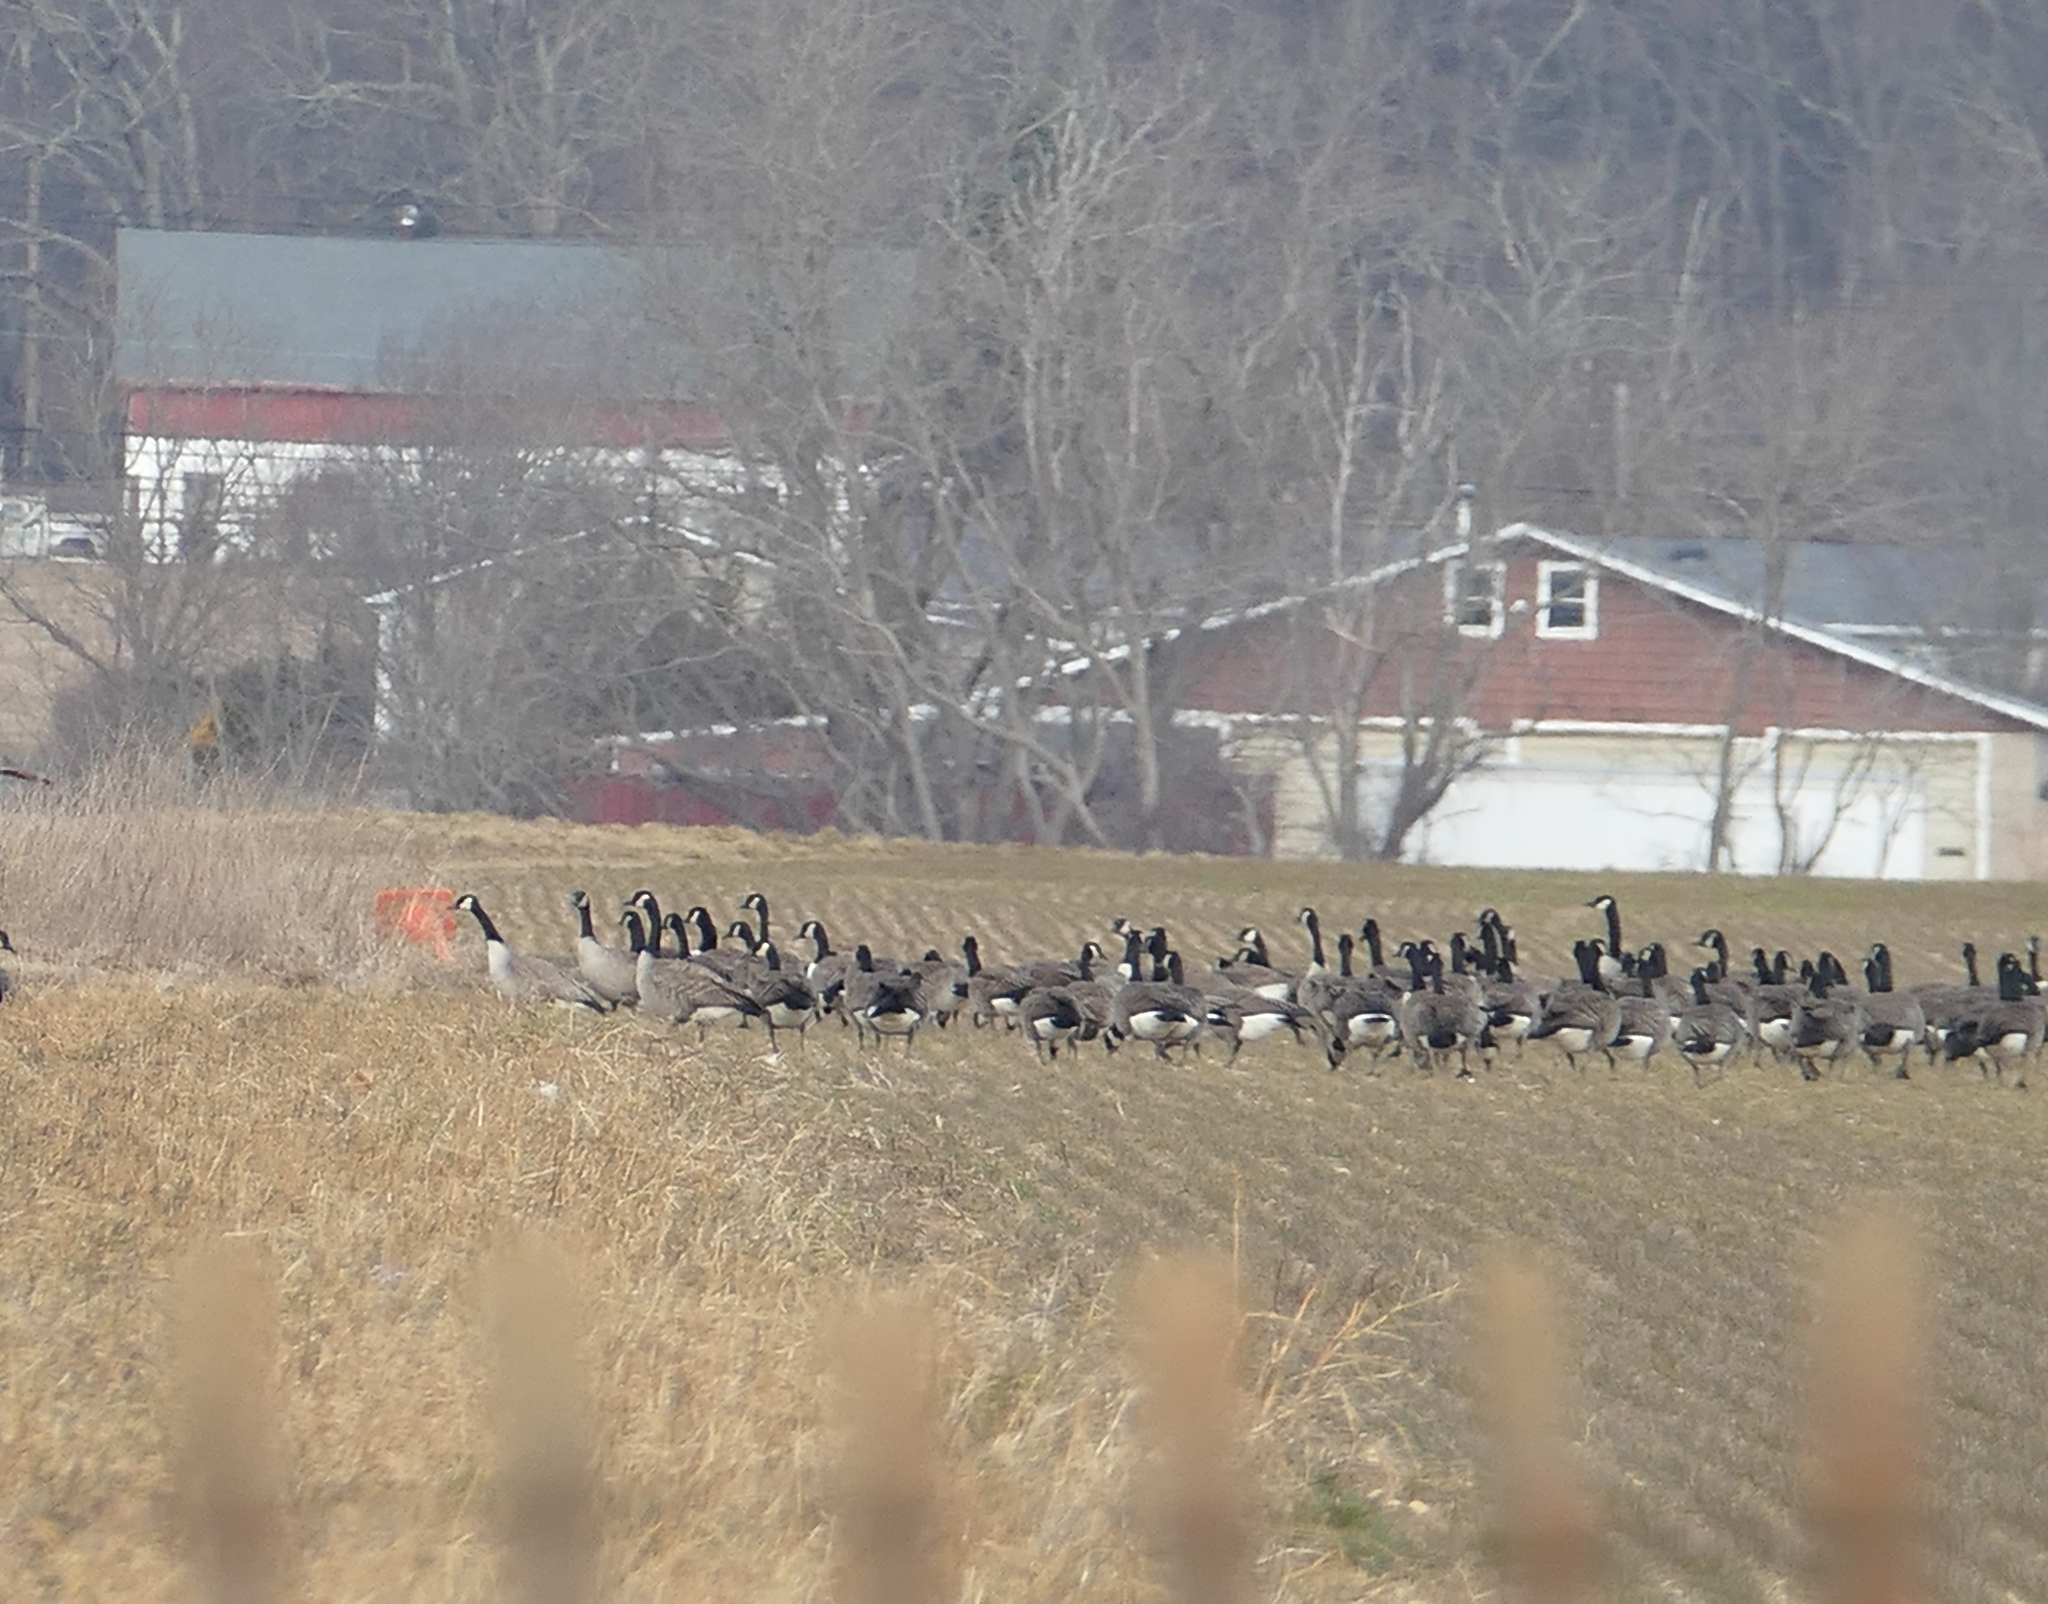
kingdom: Animalia
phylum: Chordata
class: Aves
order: Anseriformes
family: Anatidae
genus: Branta
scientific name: Branta canadensis
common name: Canada goose
